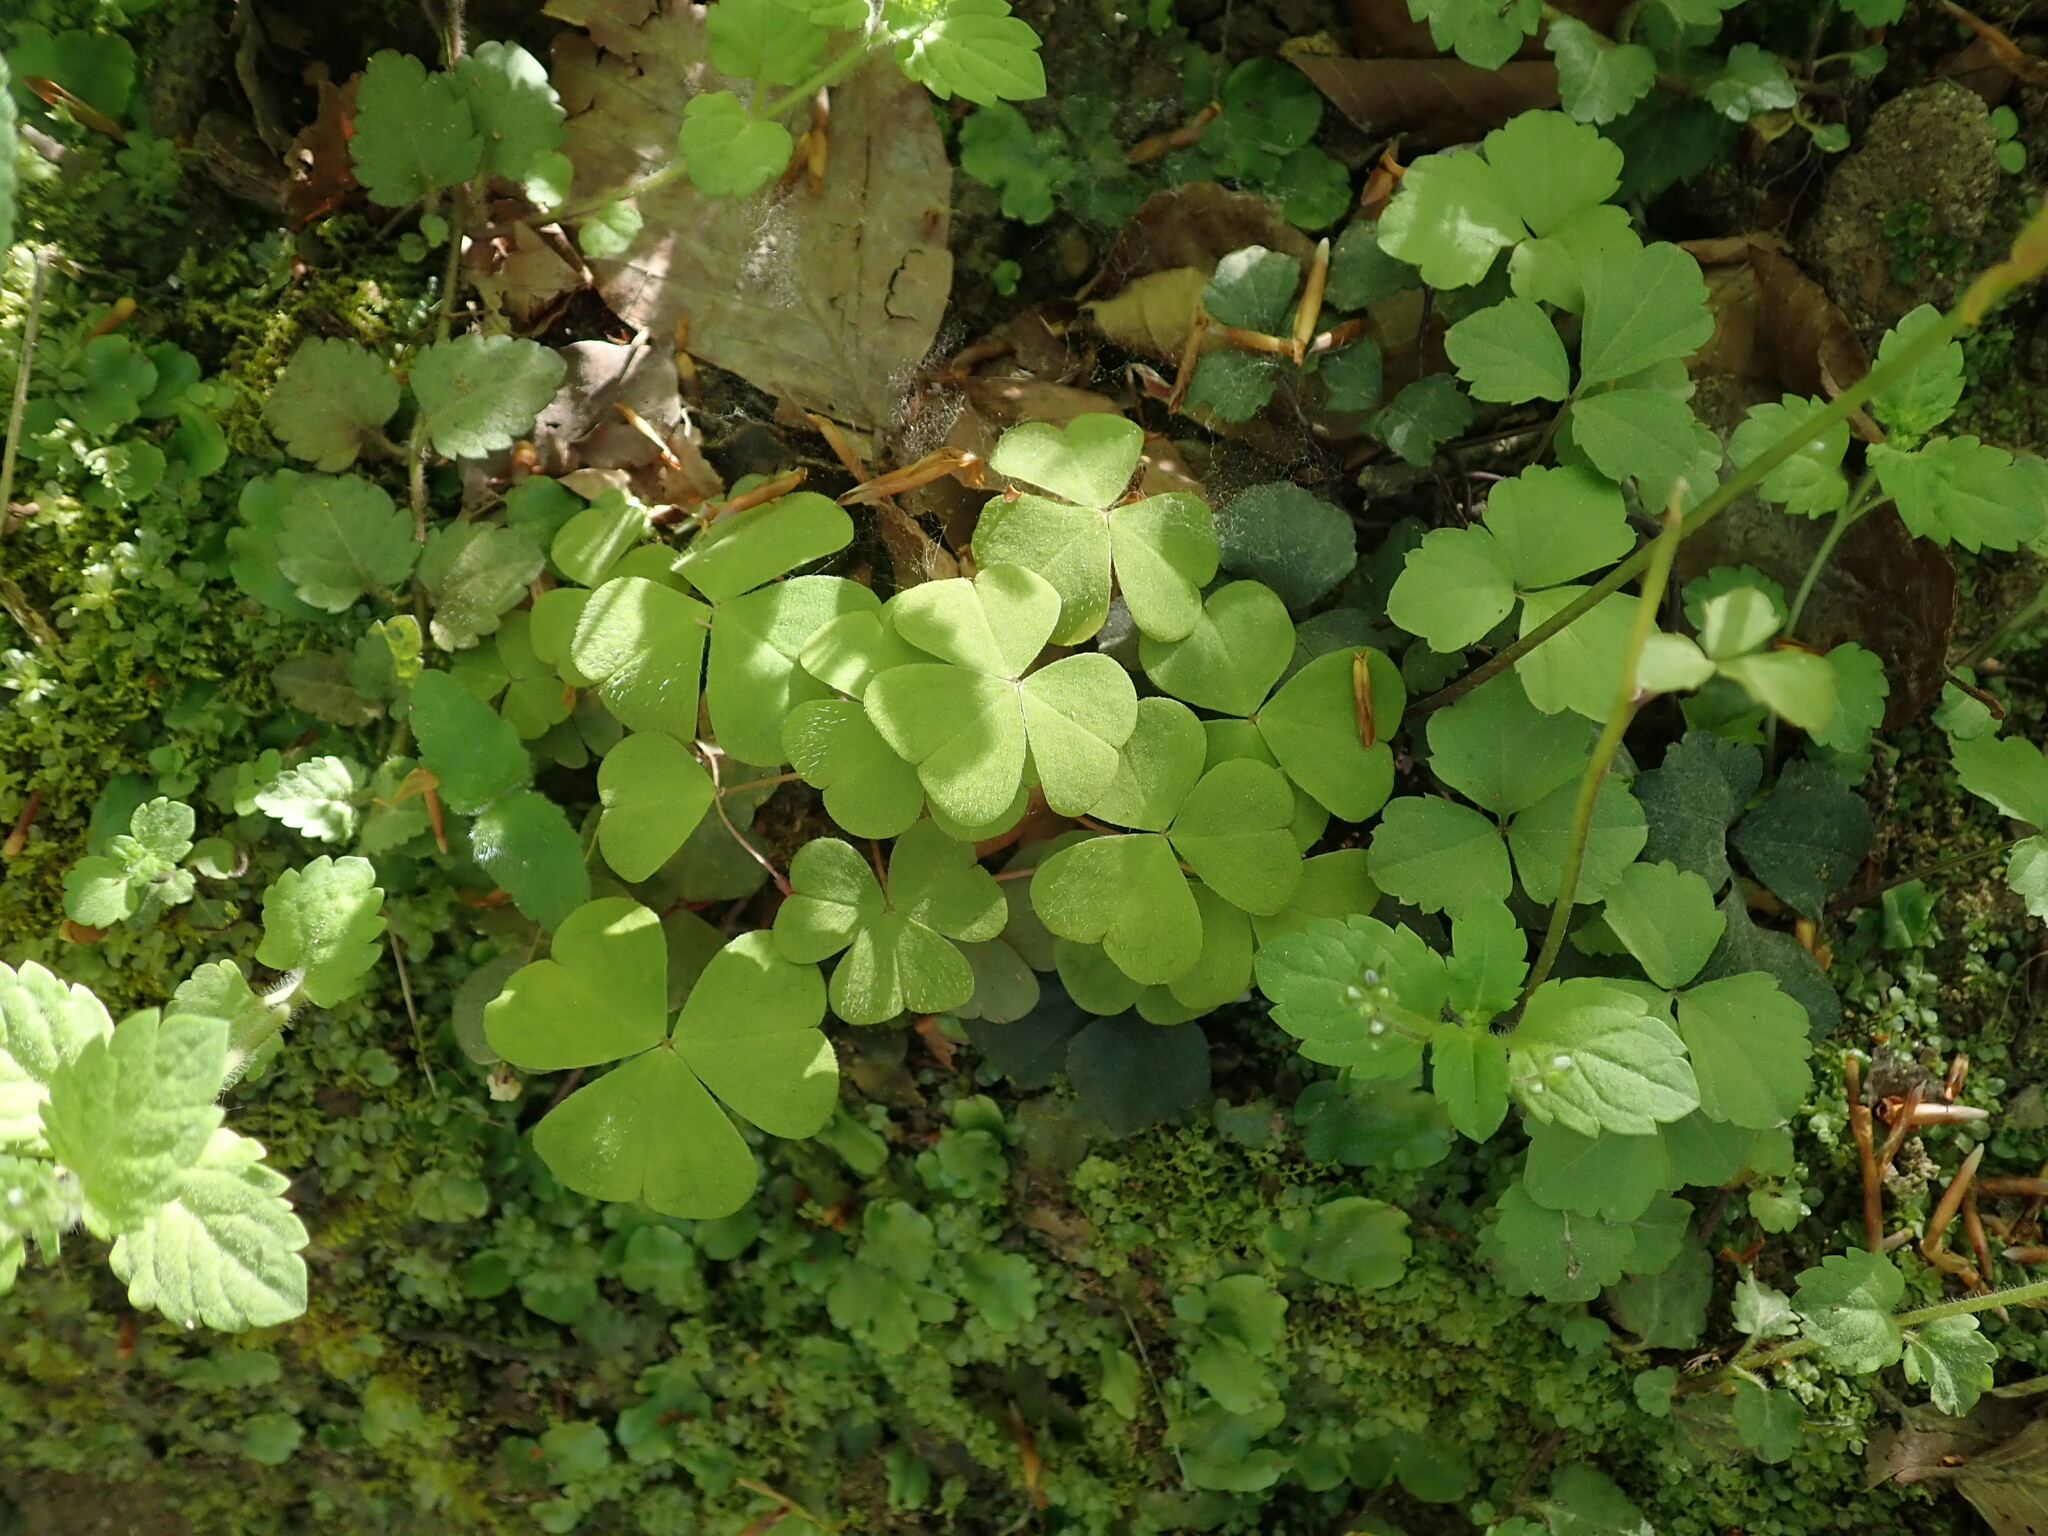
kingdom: Plantae
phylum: Tracheophyta
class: Magnoliopsida
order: Oxalidales
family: Oxalidaceae
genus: Oxalis
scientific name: Oxalis acetosella
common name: Wood-sorrel
